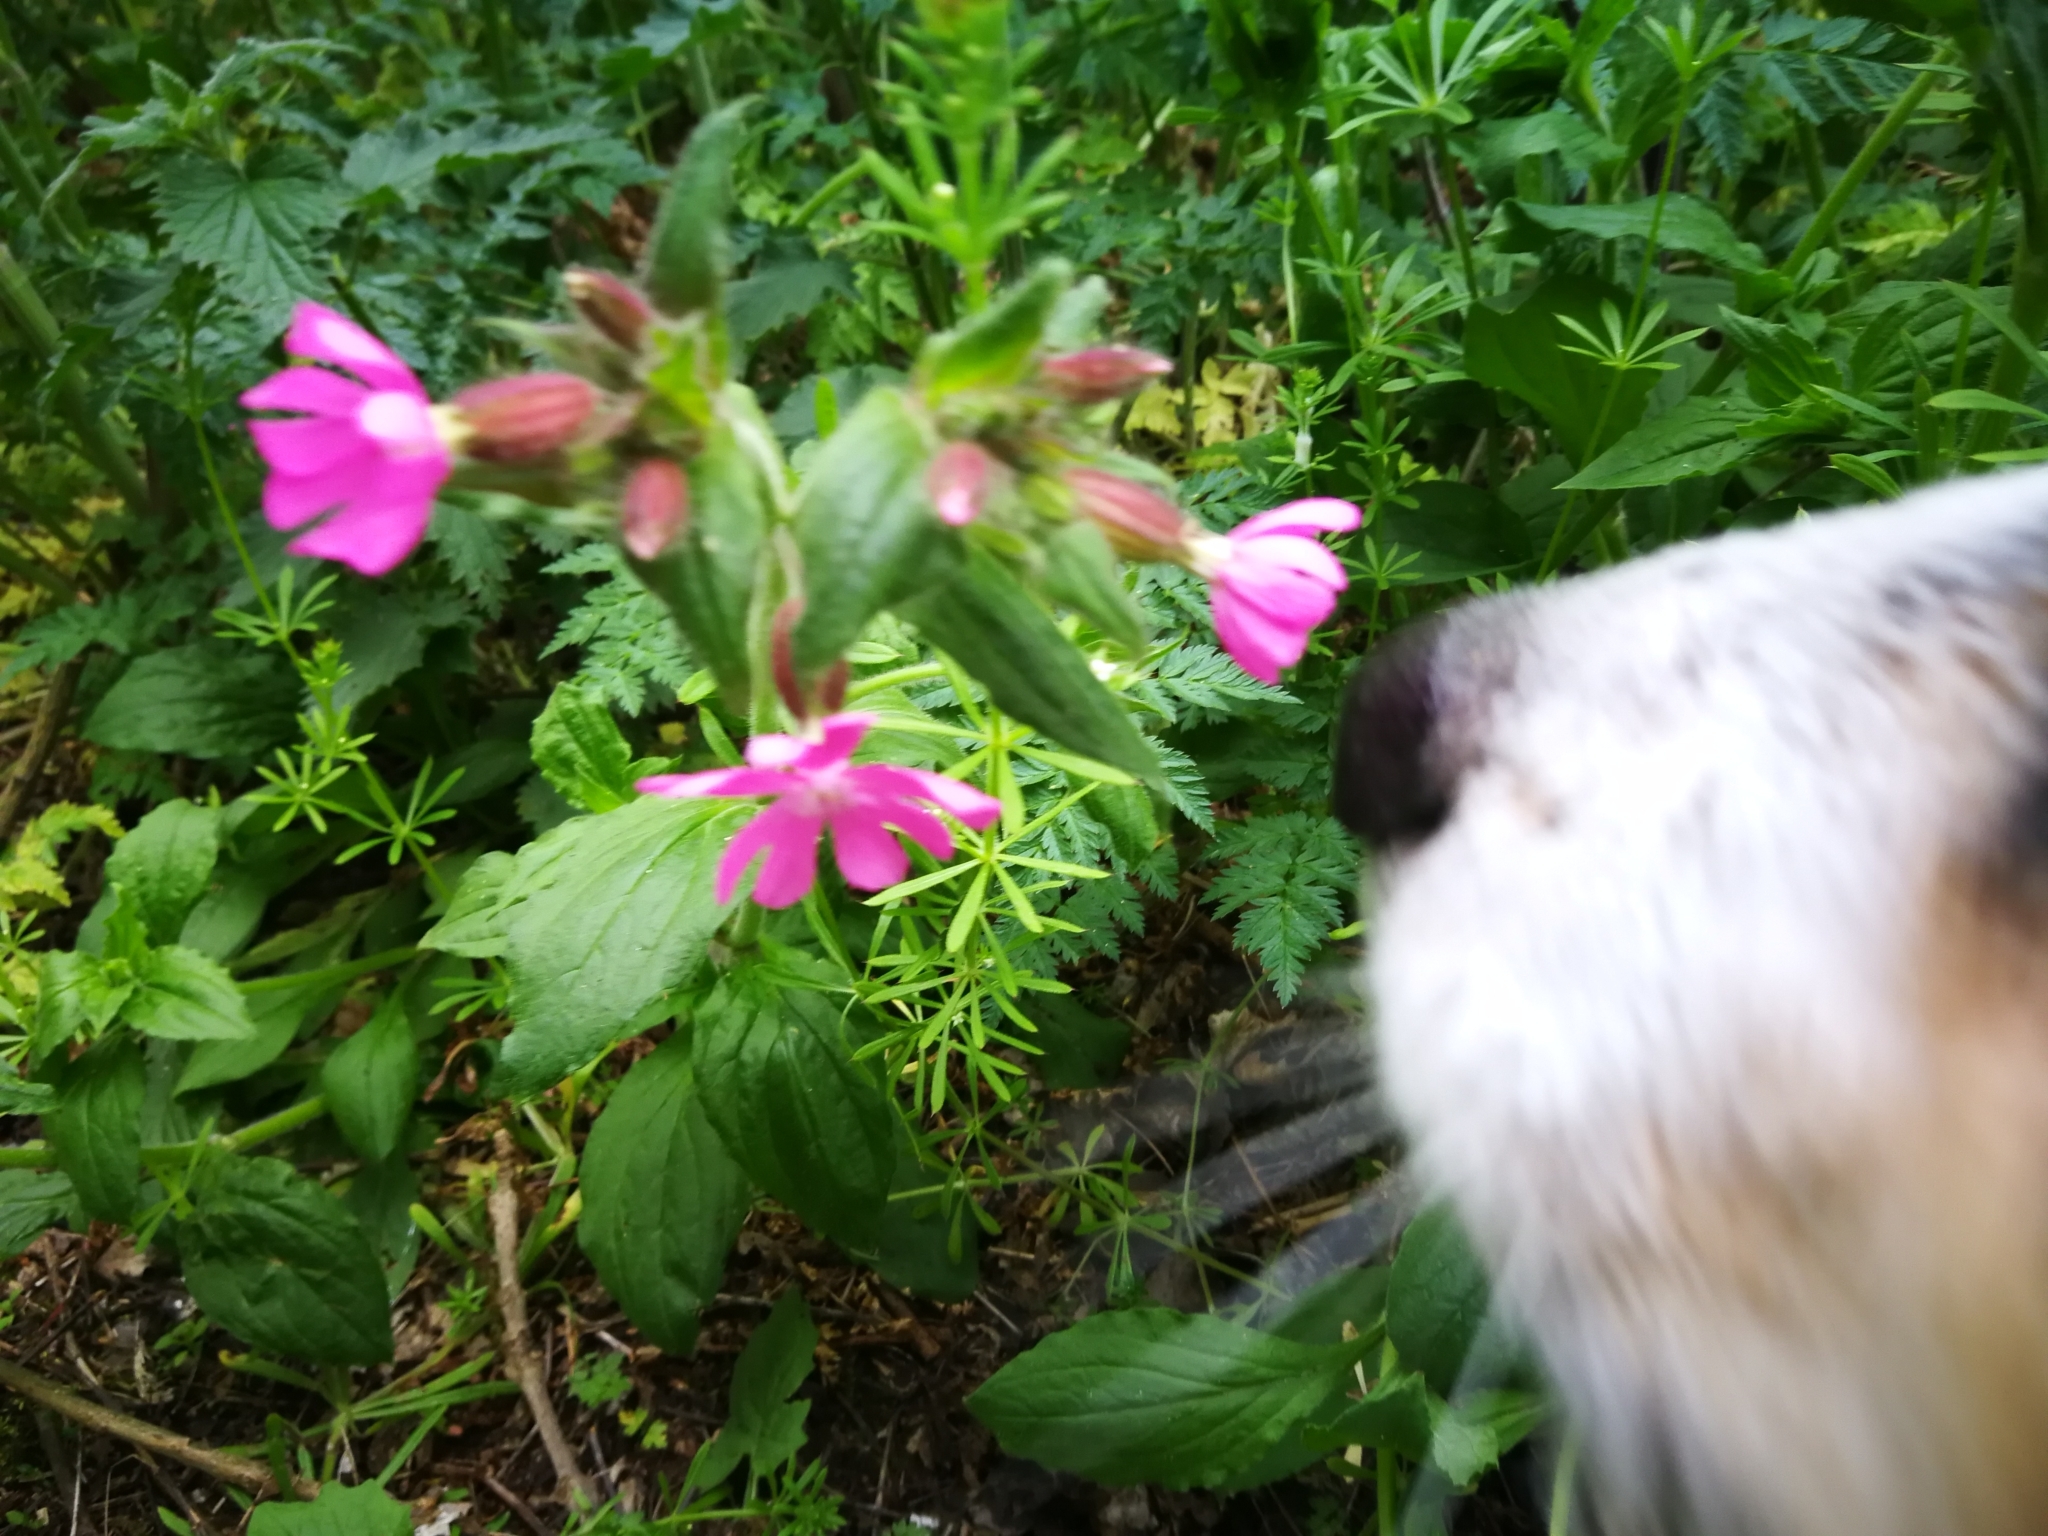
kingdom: Plantae
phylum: Tracheophyta
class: Magnoliopsida
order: Caryophyllales
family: Caryophyllaceae
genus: Silene
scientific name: Silene dioica
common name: Red campion
